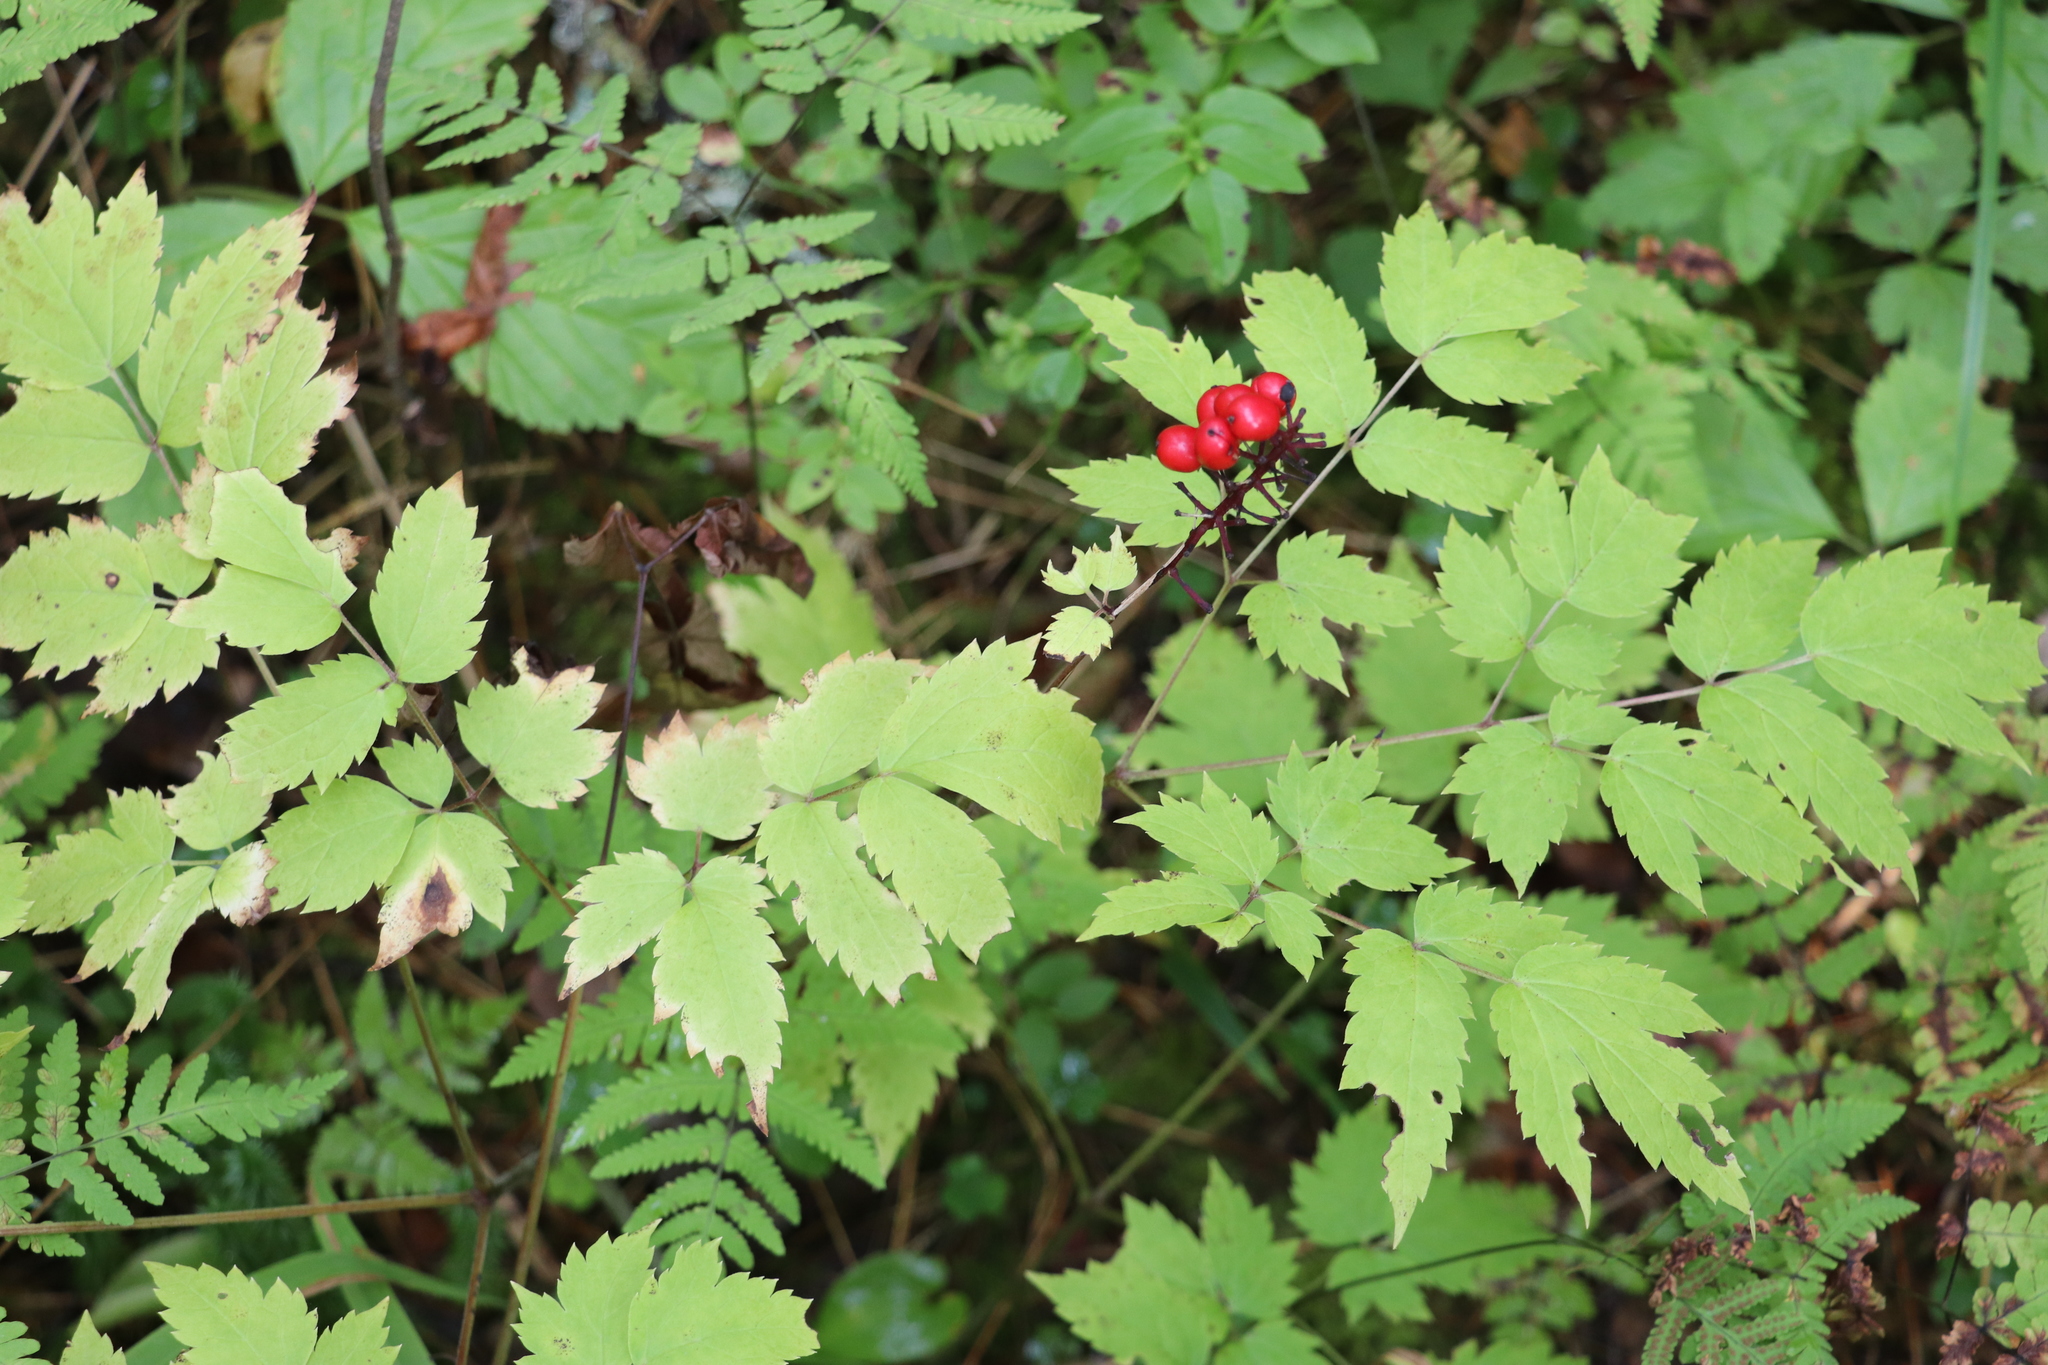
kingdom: Plantae
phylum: Tracheophyta
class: Magnoliopsida
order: Ranunculales
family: Ranunculaceae
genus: Actaea
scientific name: Actaea erythrocarpa
